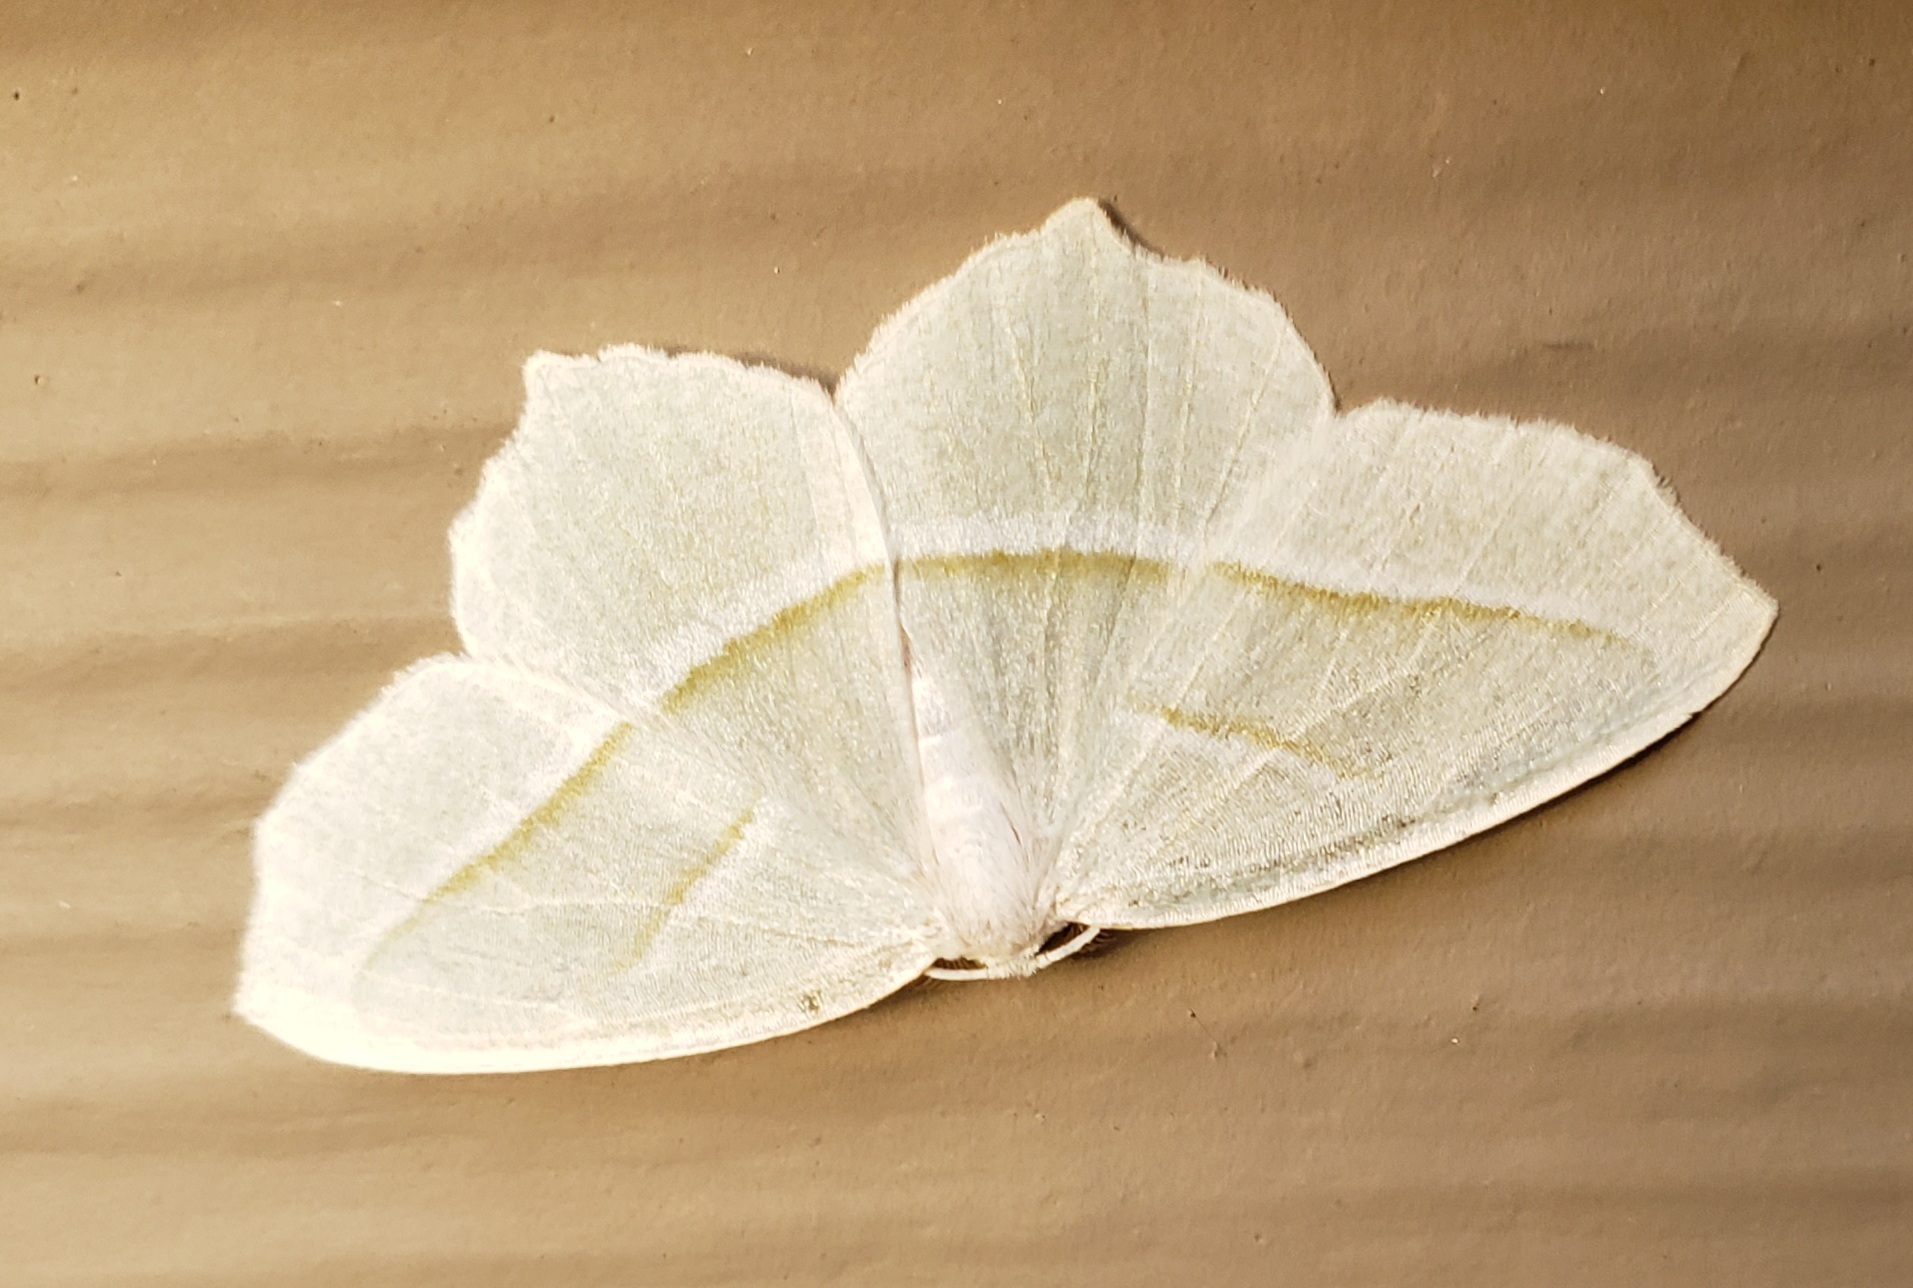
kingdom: Animalia
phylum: Arthropoda
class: Insecta
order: Lepidoptera
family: Geometridae
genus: Campaea
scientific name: Campaea perlata
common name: Fringed looper
